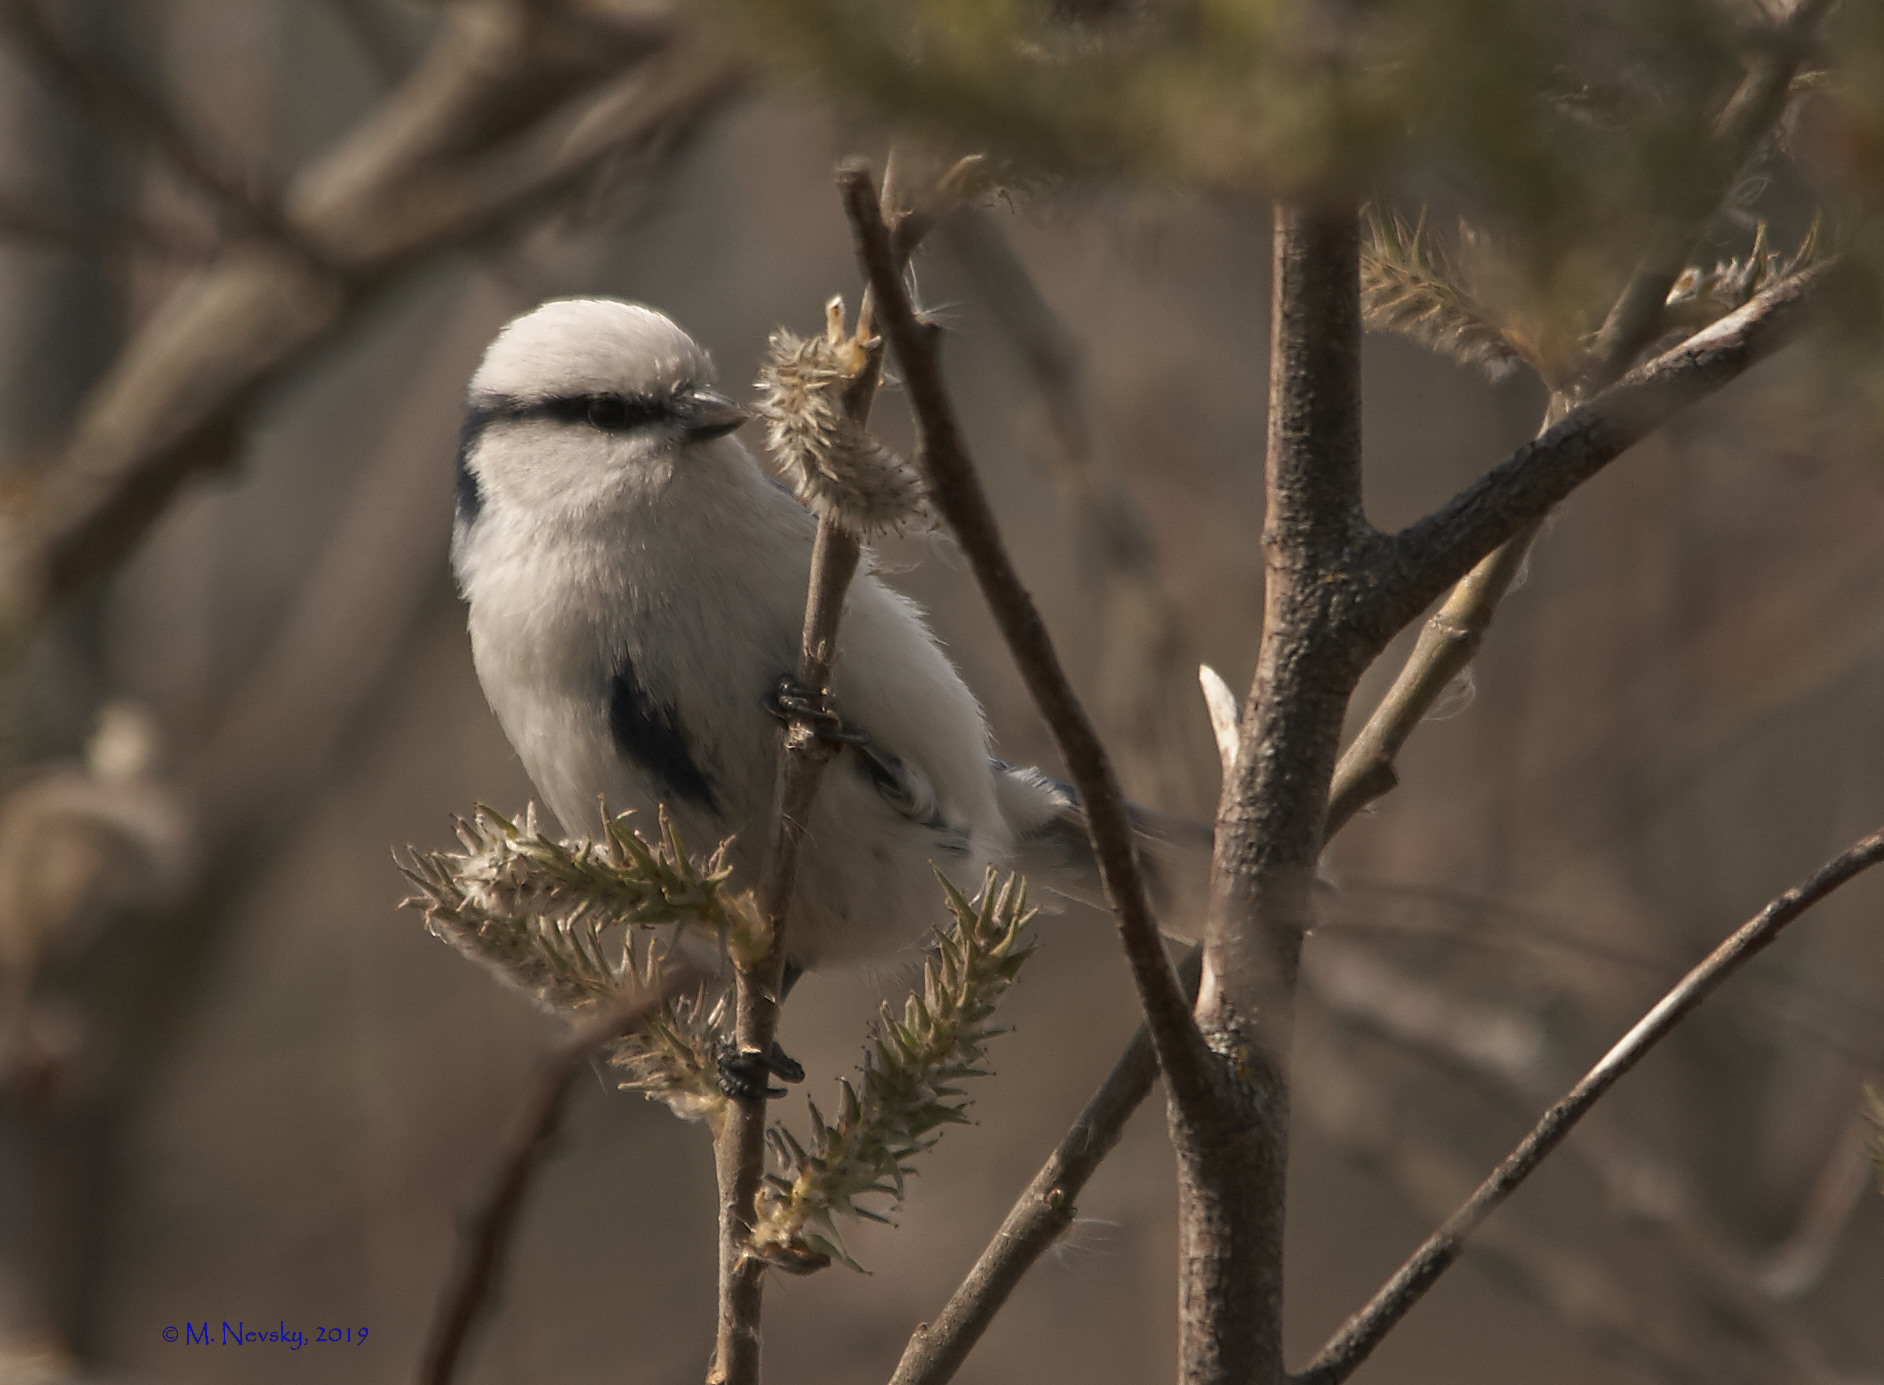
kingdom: Animalia
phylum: Chordata
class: Aves
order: Passeriformes
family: Paridae
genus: Cyanistes
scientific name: Cyanistes cyanus
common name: Azure tit
